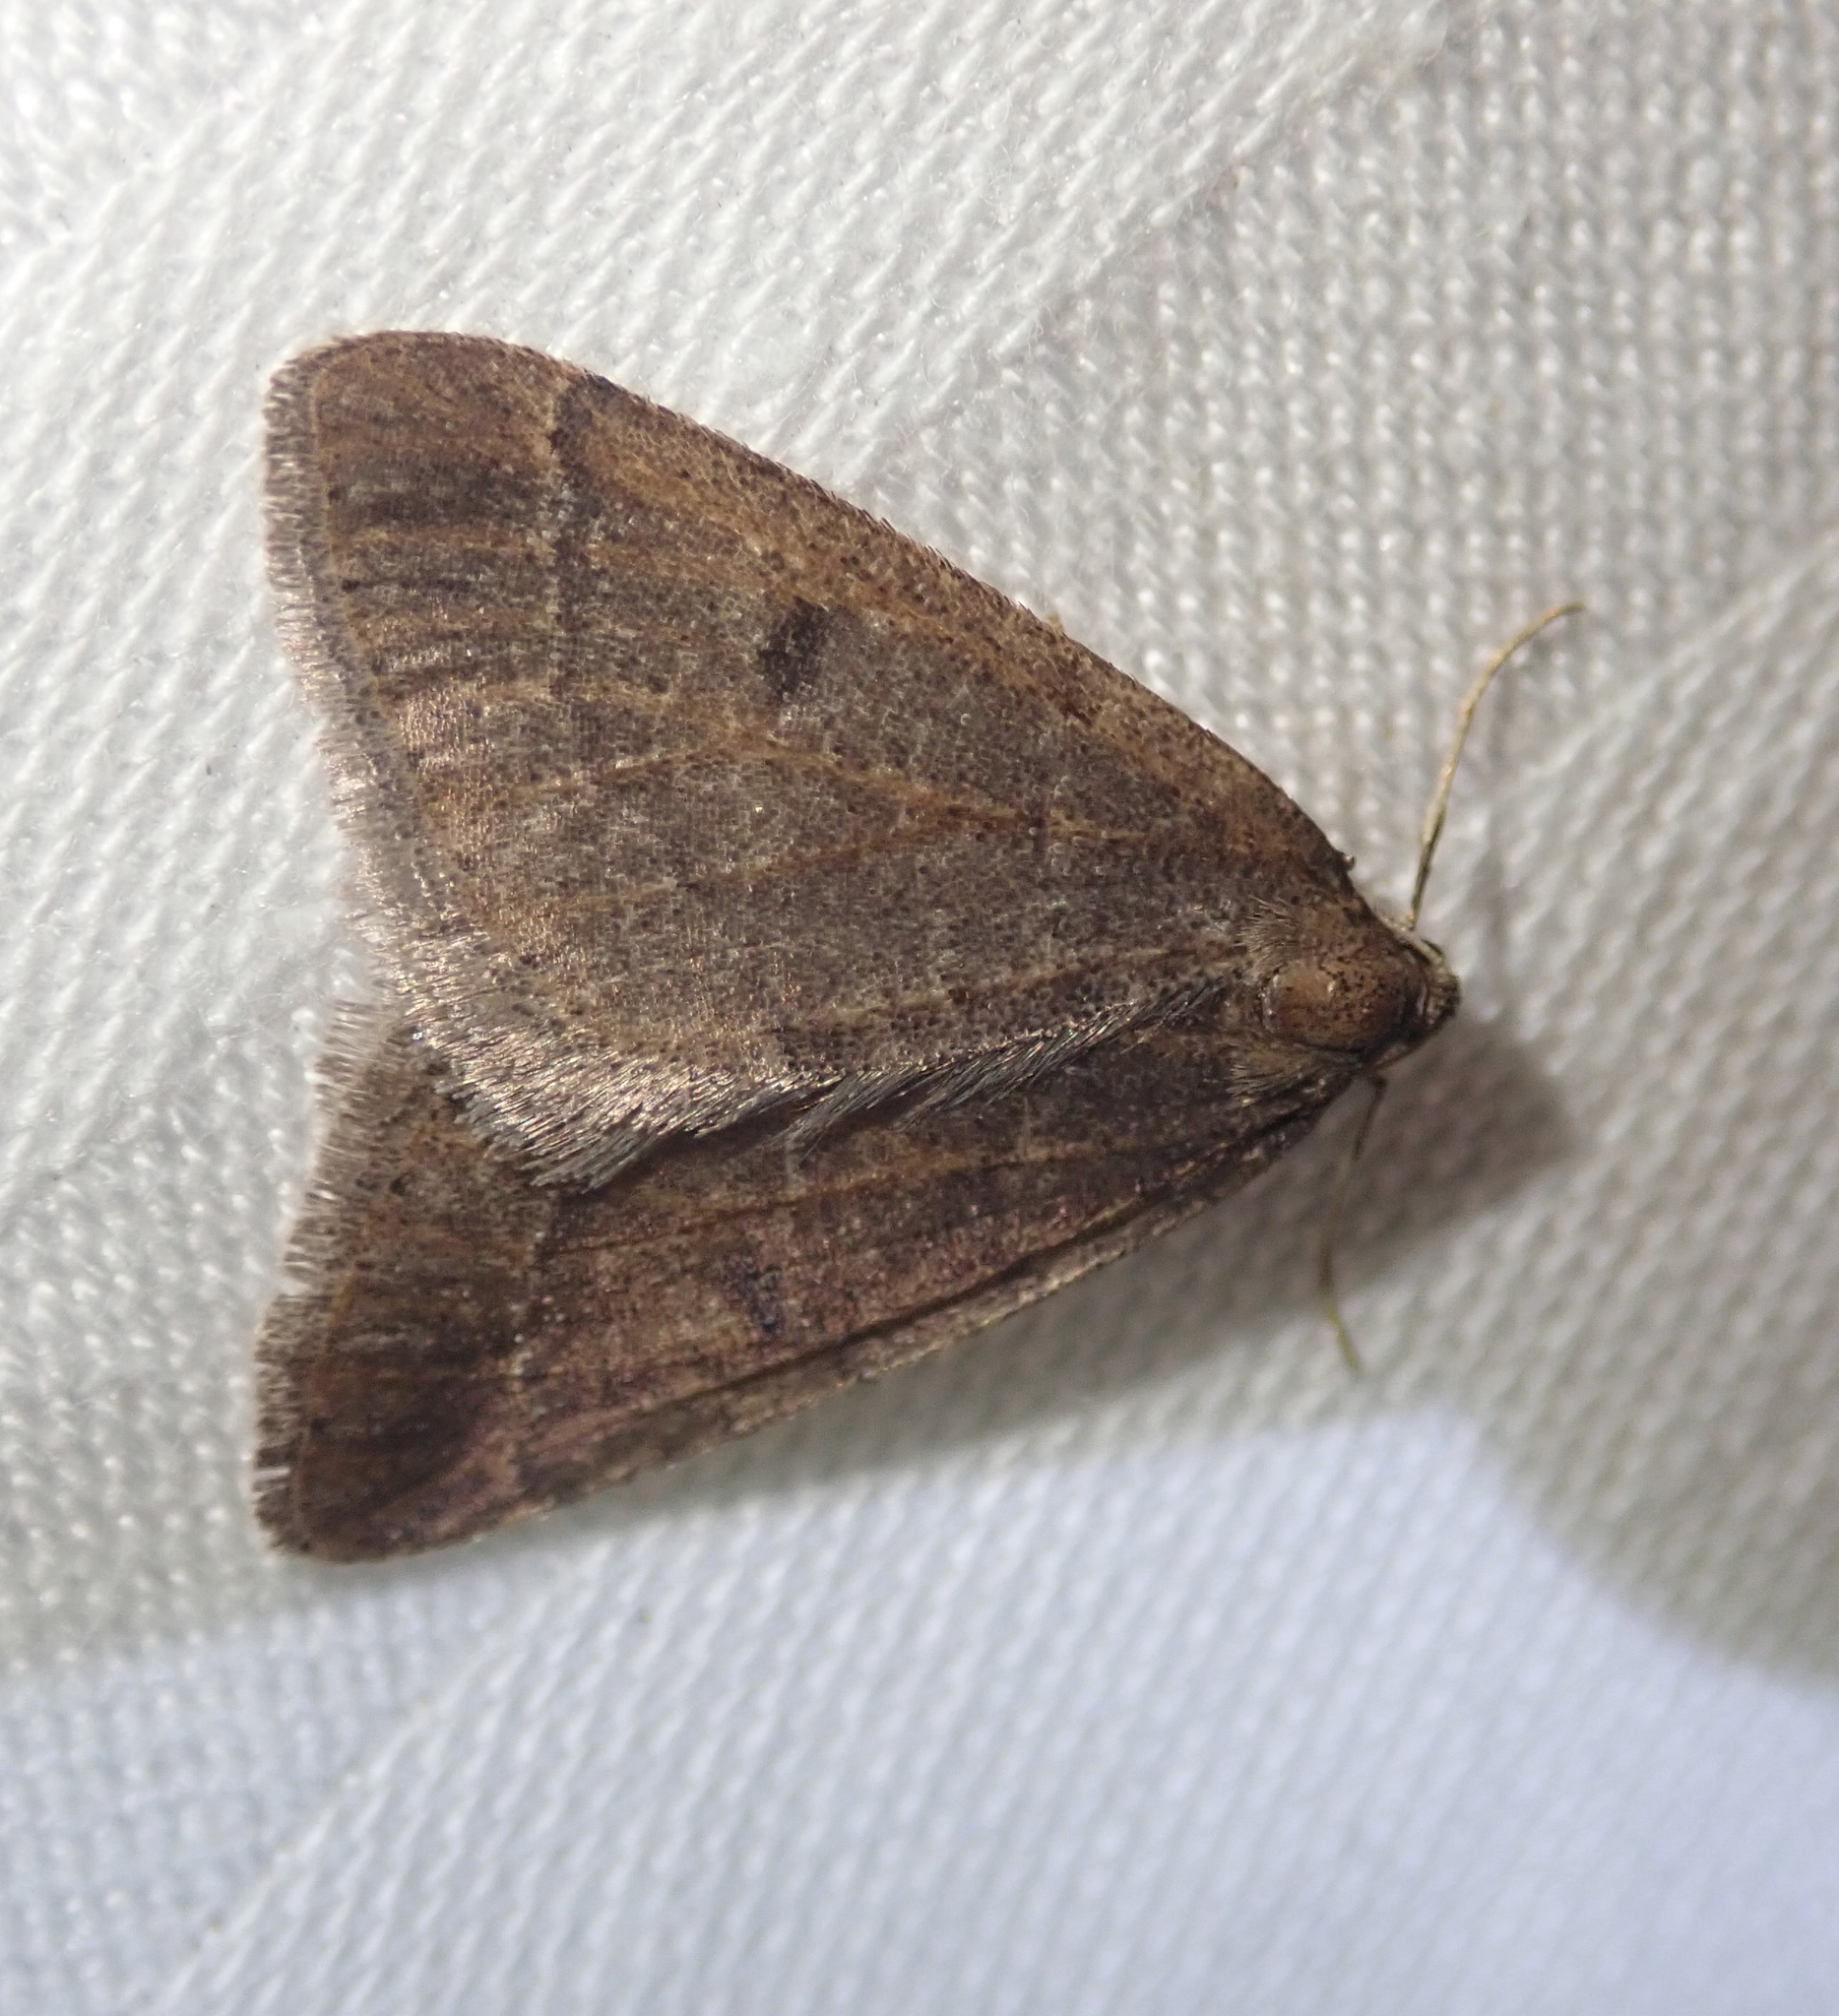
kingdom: Animalia
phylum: Arthropoda
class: Insecta
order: Lepidoptera
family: Geometridae
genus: Theria
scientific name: Theria primaria
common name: Early moth
